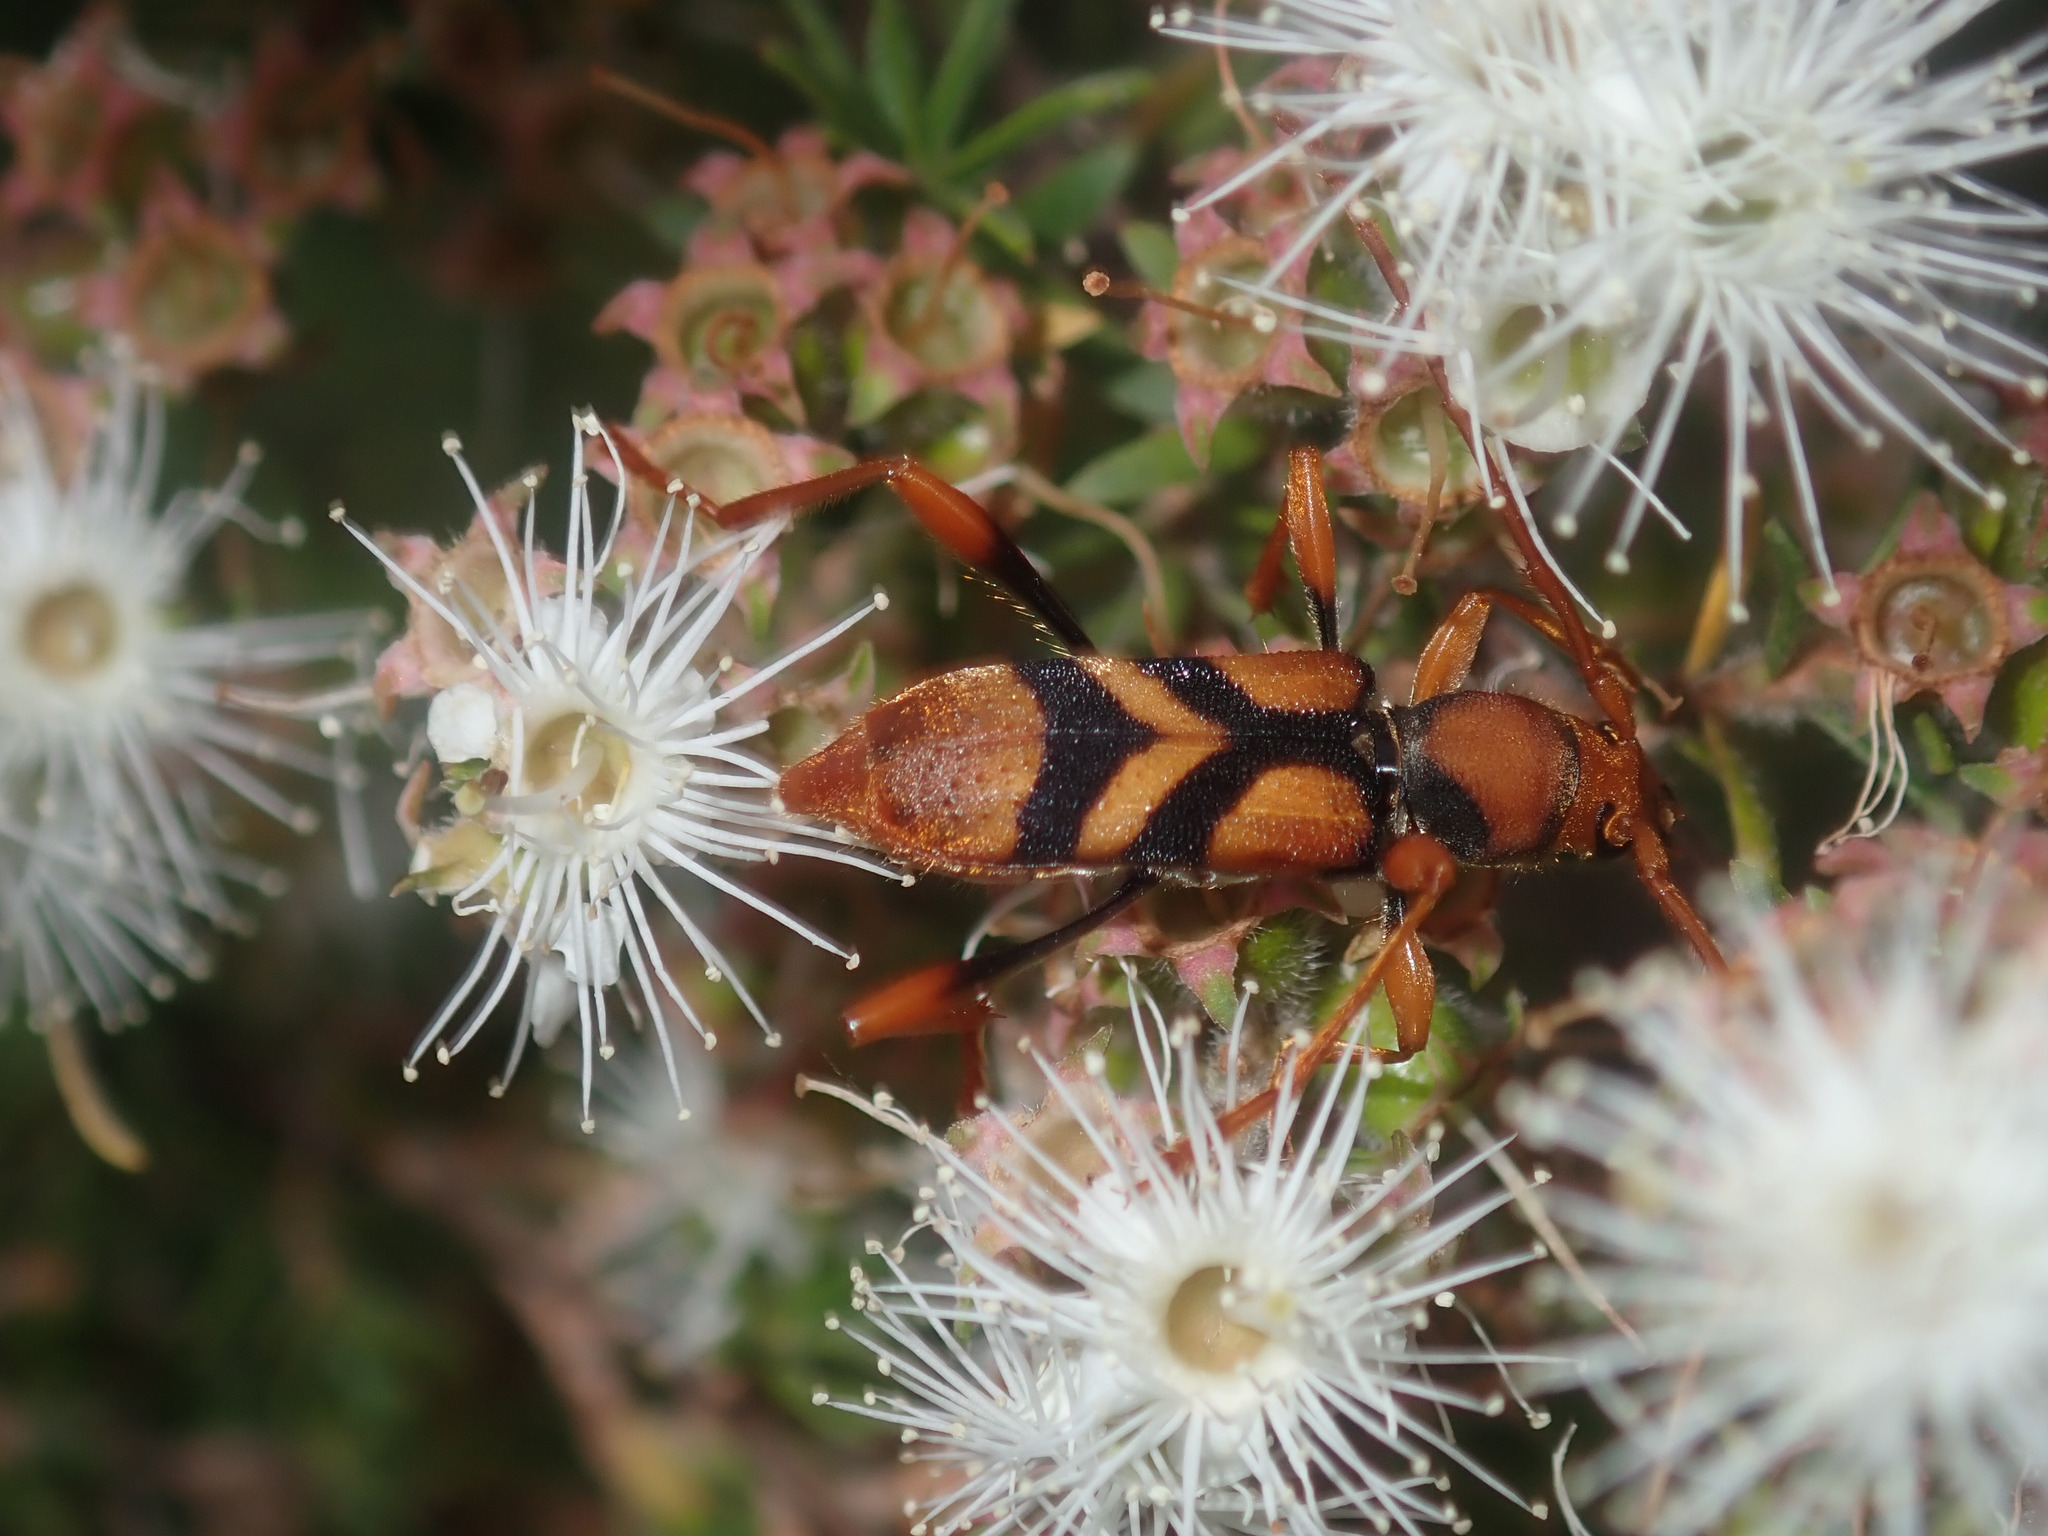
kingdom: Animalia
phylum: Arthropoda
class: Insecta
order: Coleoptera
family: Cerambycidae
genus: Aridaeus
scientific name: Aridaeus thoracicus
